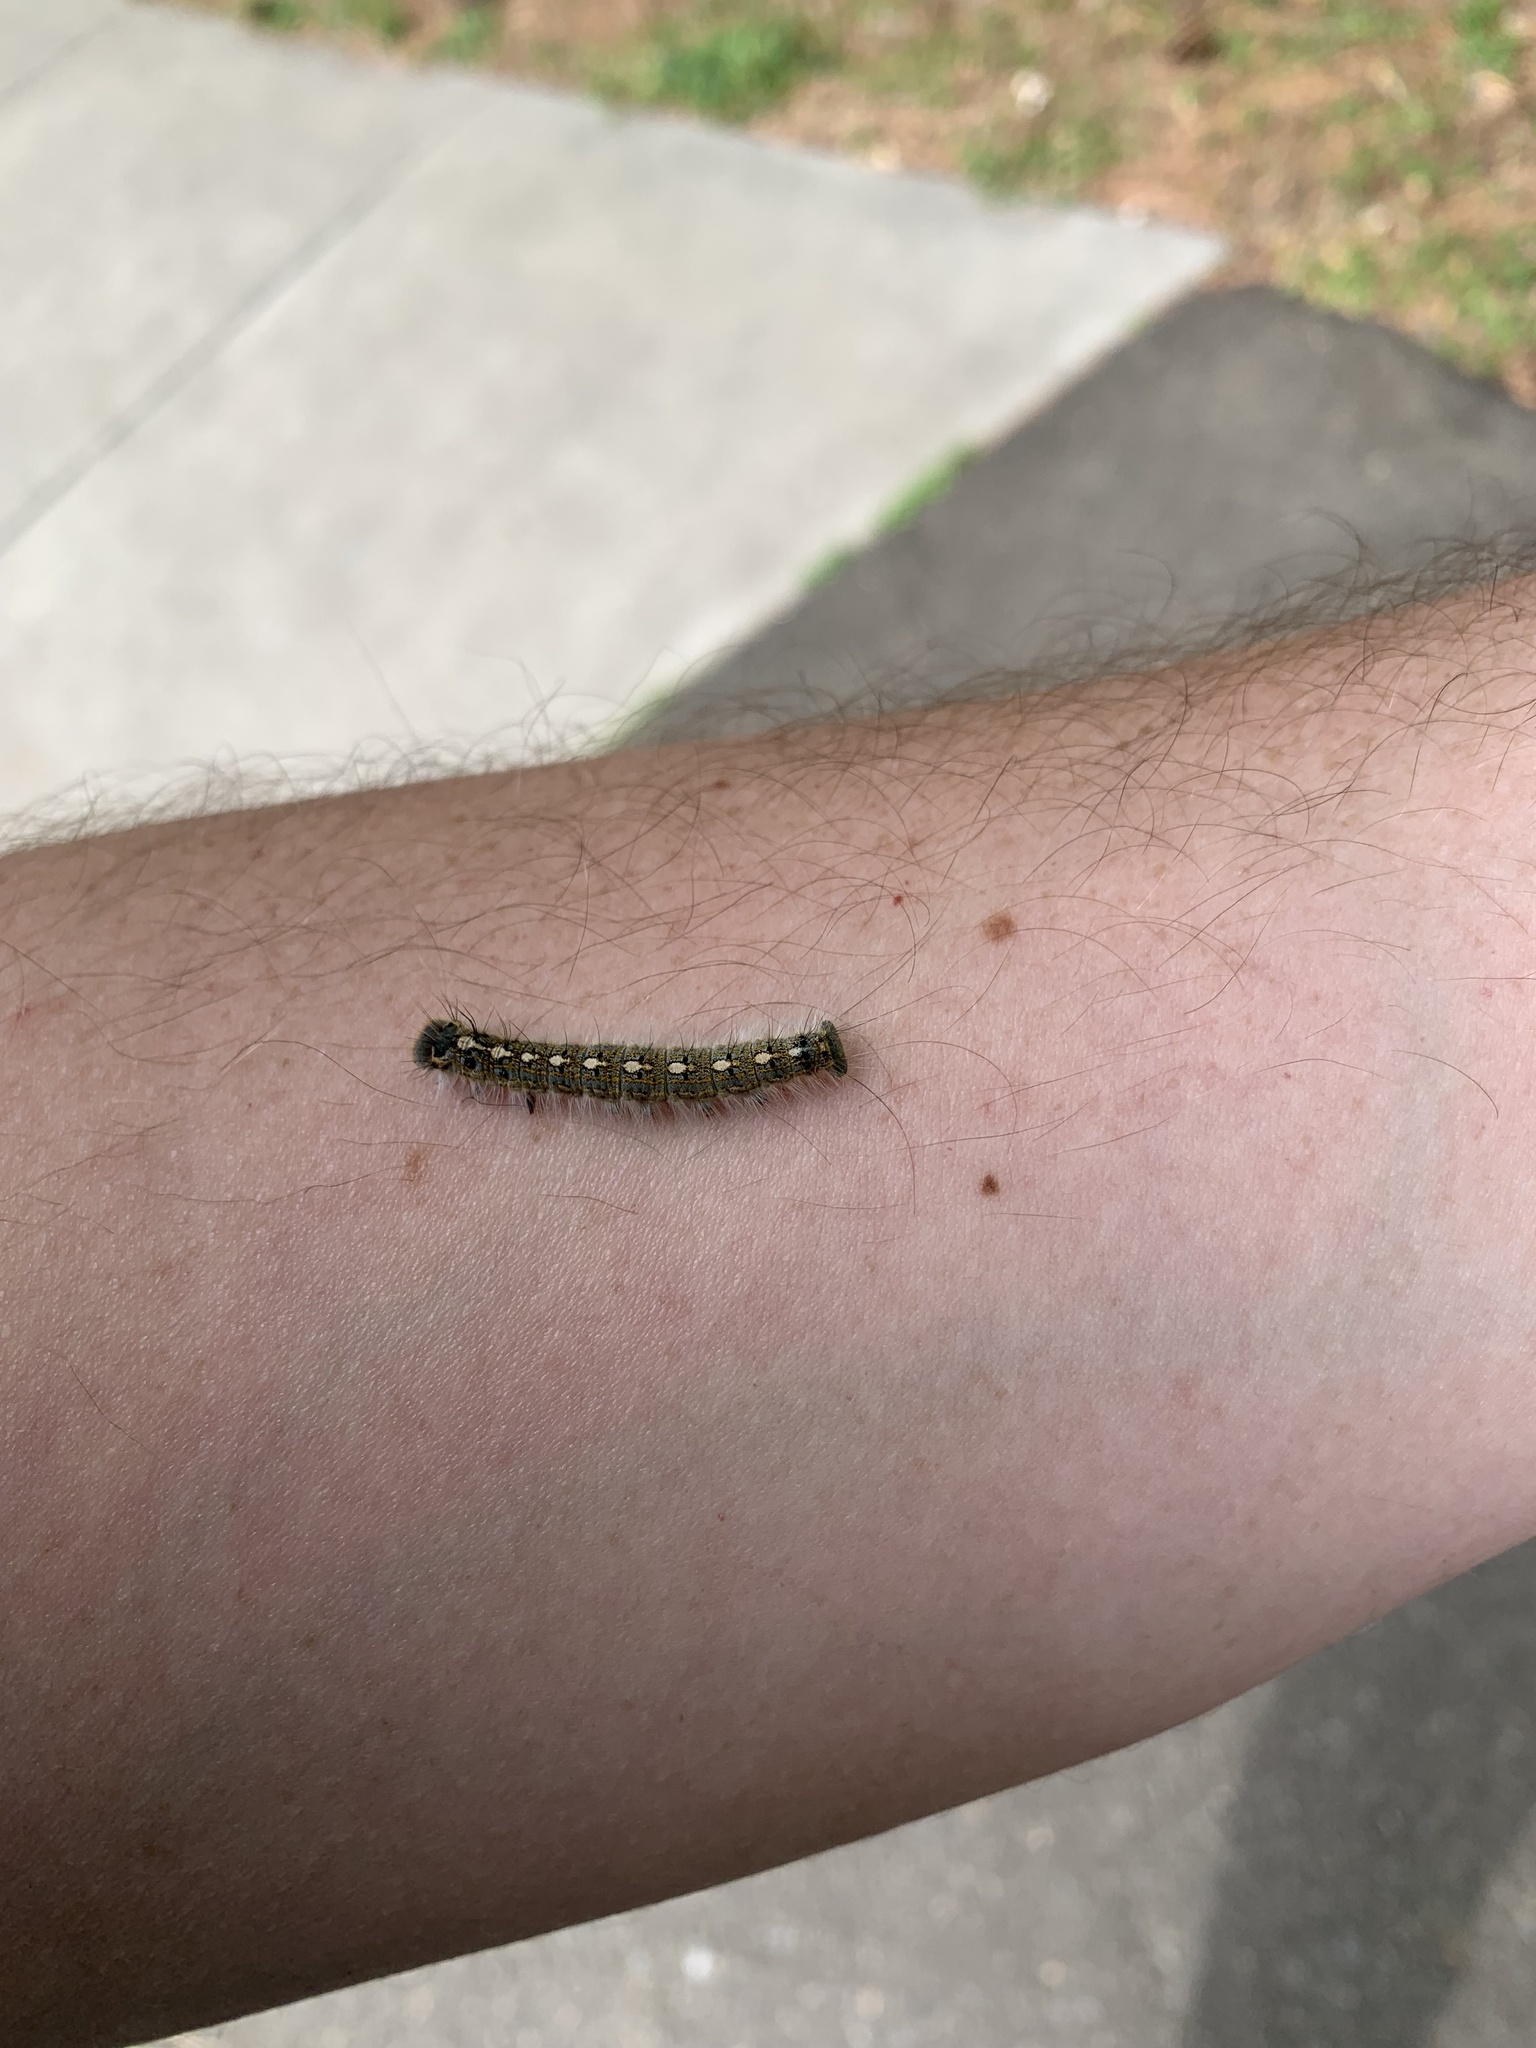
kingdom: Animalia
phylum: Arthropoda
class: Insecta
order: Lepidoptera
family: Lasiocampidae
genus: Malacosoma
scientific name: Malacosoma disstria
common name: Forest tent caterpillar
